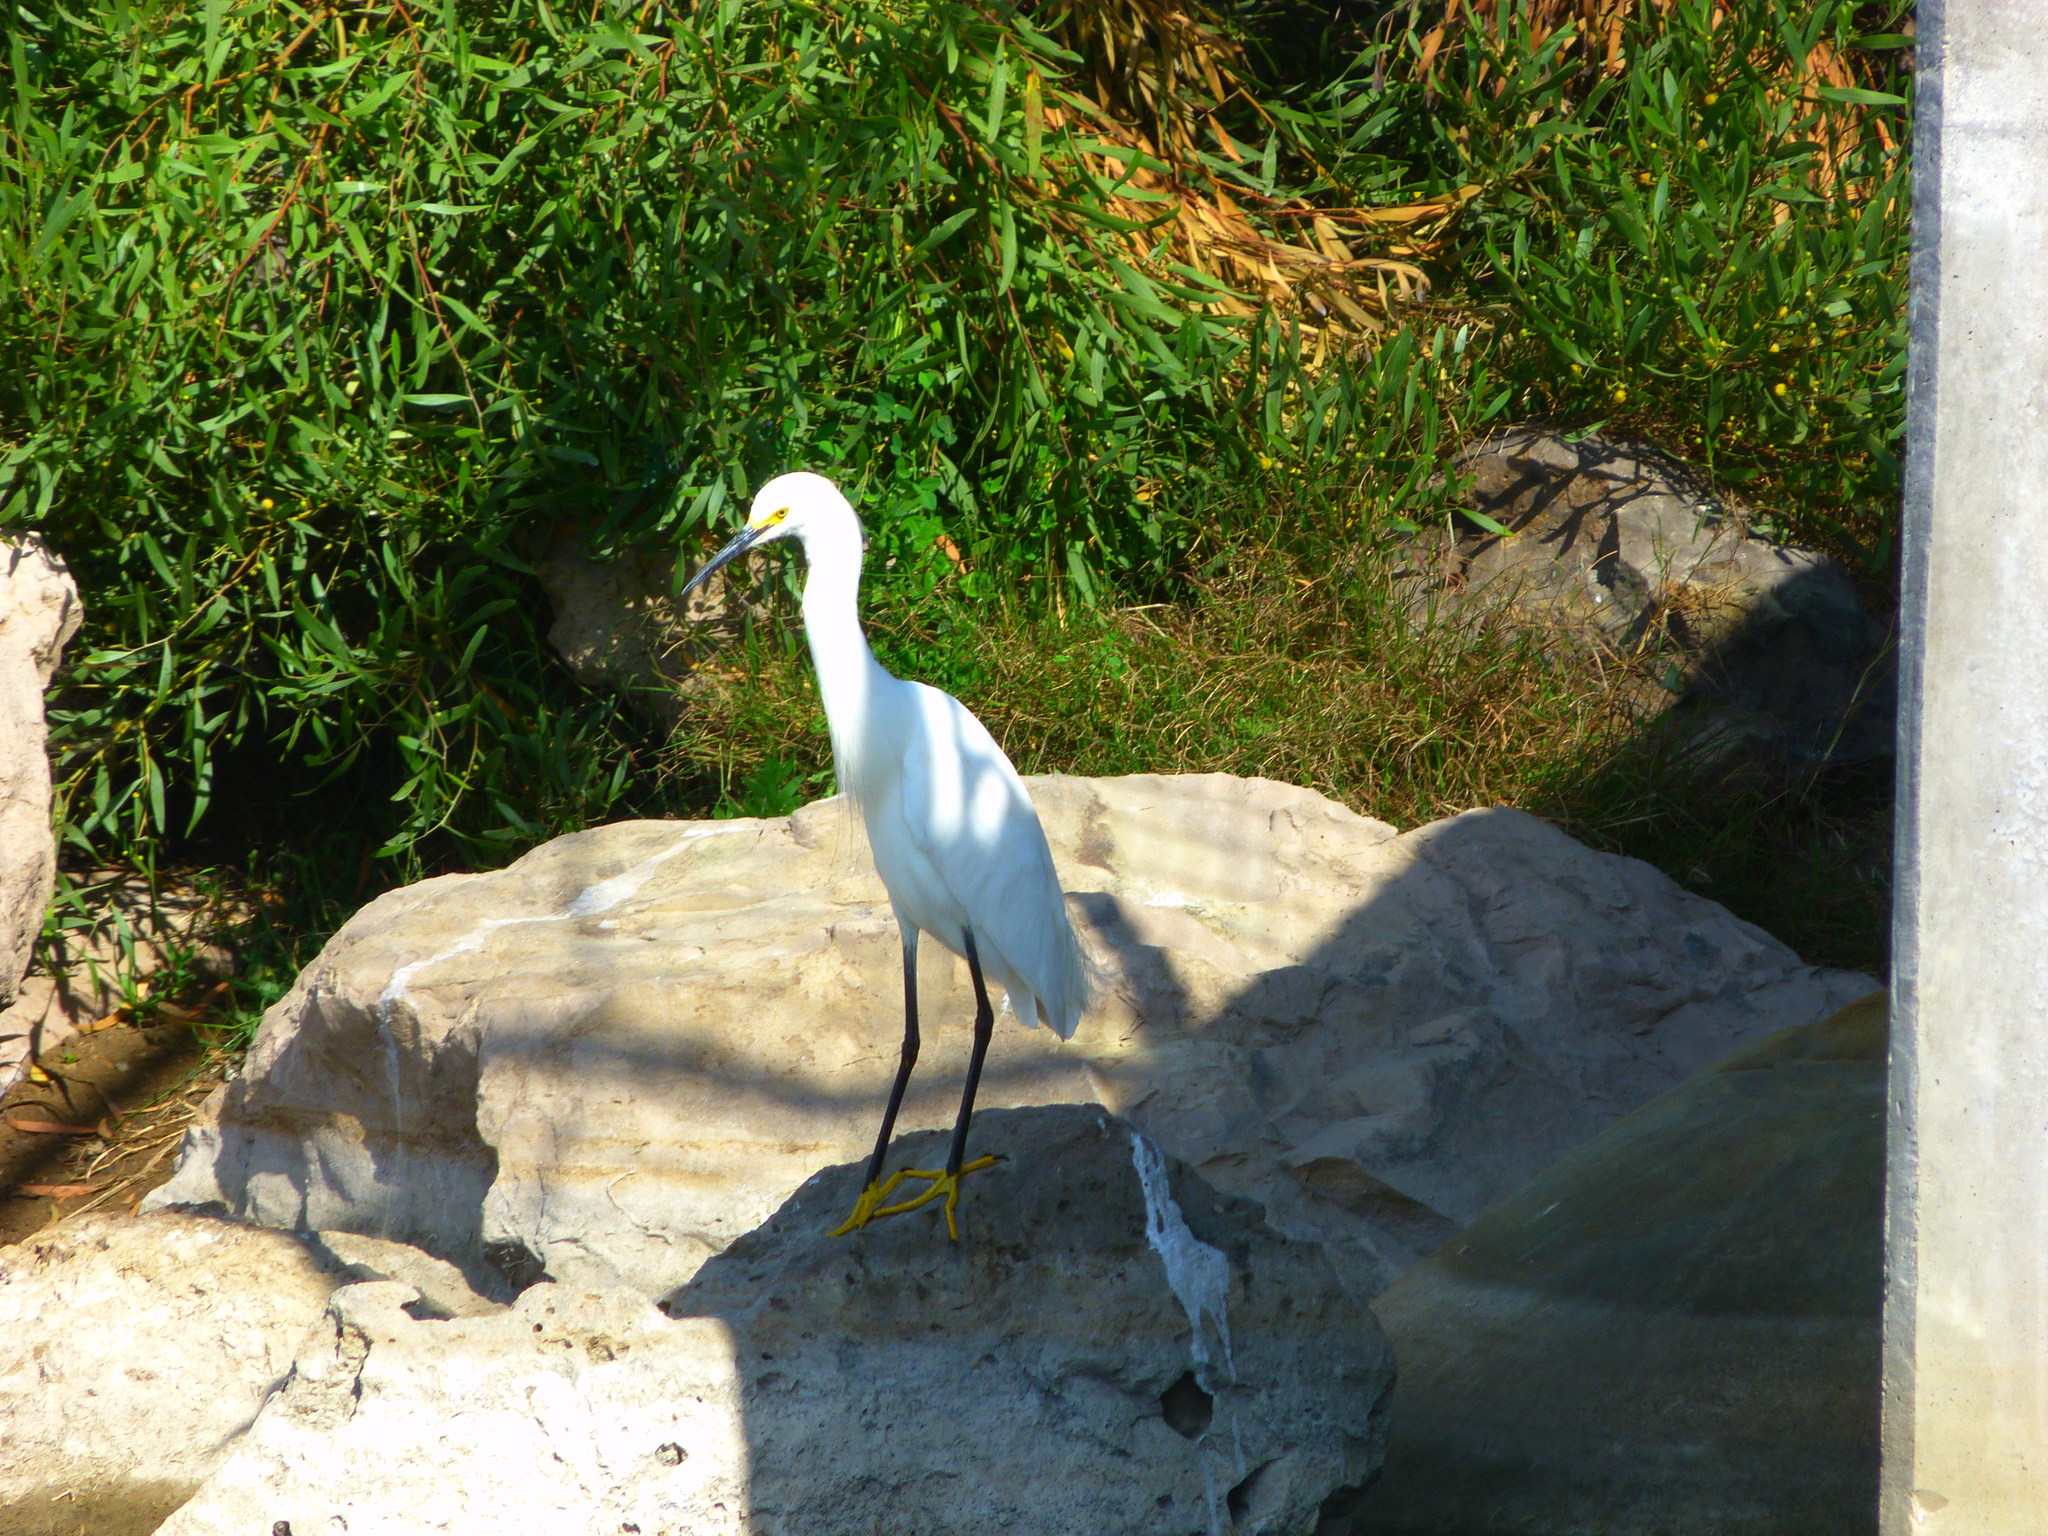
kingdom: Animalia
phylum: Chordata
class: Aves
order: Pelecaniformes
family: Ardeidae
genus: Egretta
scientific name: Egretta thula
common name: Snowy egret
